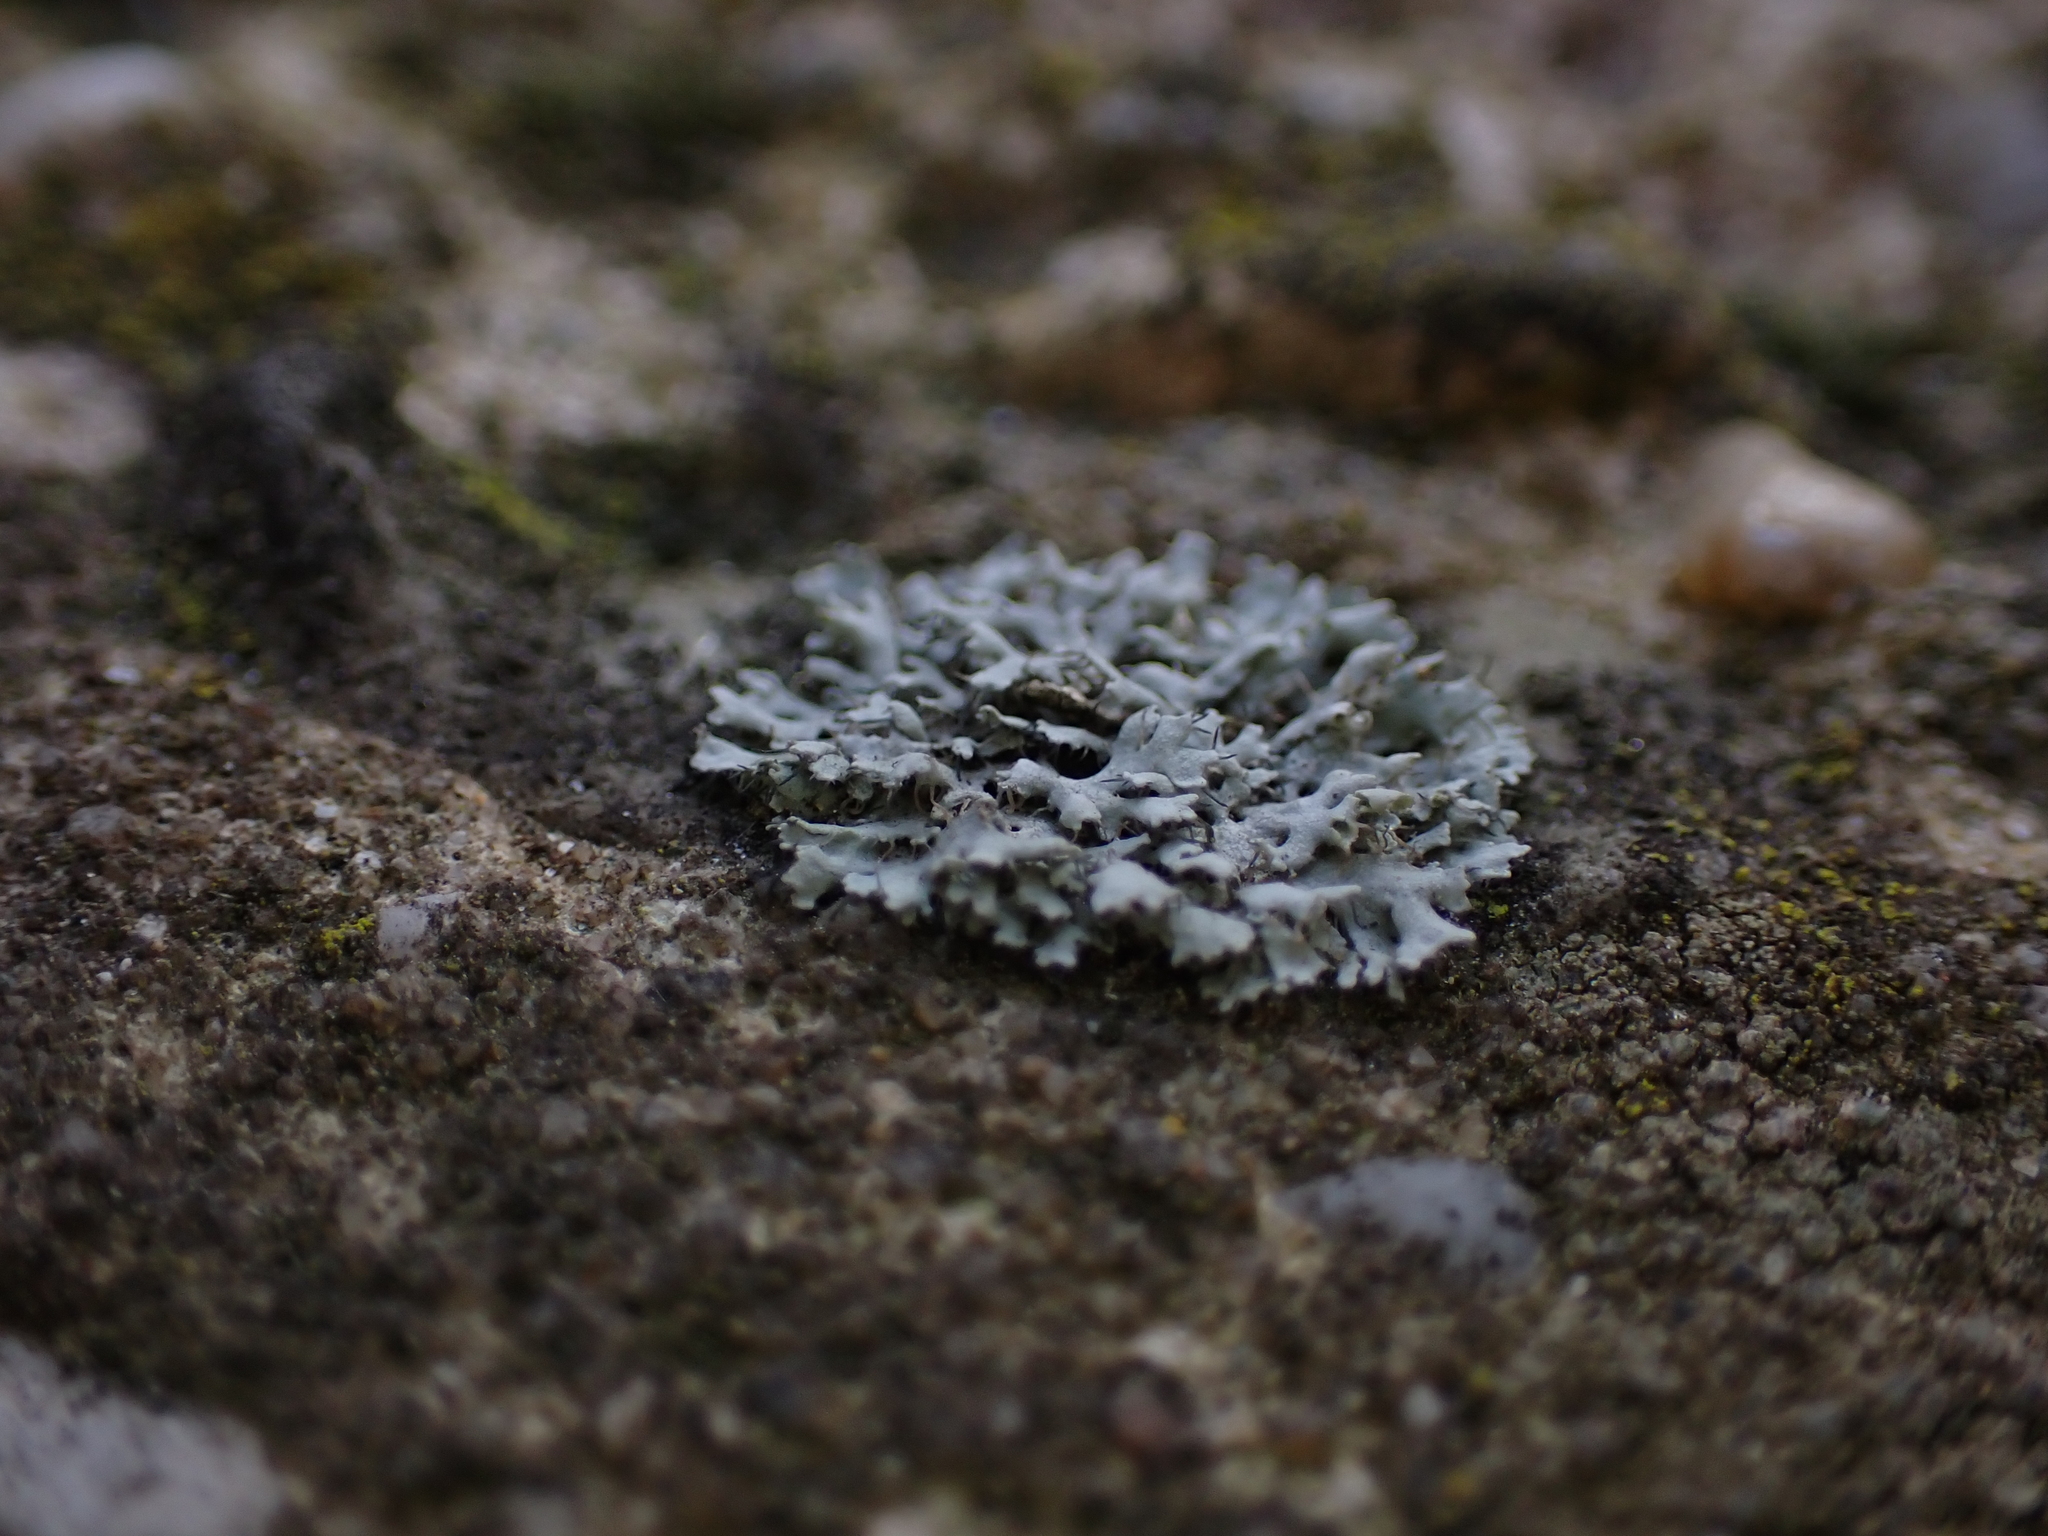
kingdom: Fungi
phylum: Ascomycota
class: Lecanoromycetes
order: Caliciales
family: Physciaceae
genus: Physcia
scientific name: Physcia adscendens
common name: Hooded rosette lichen
